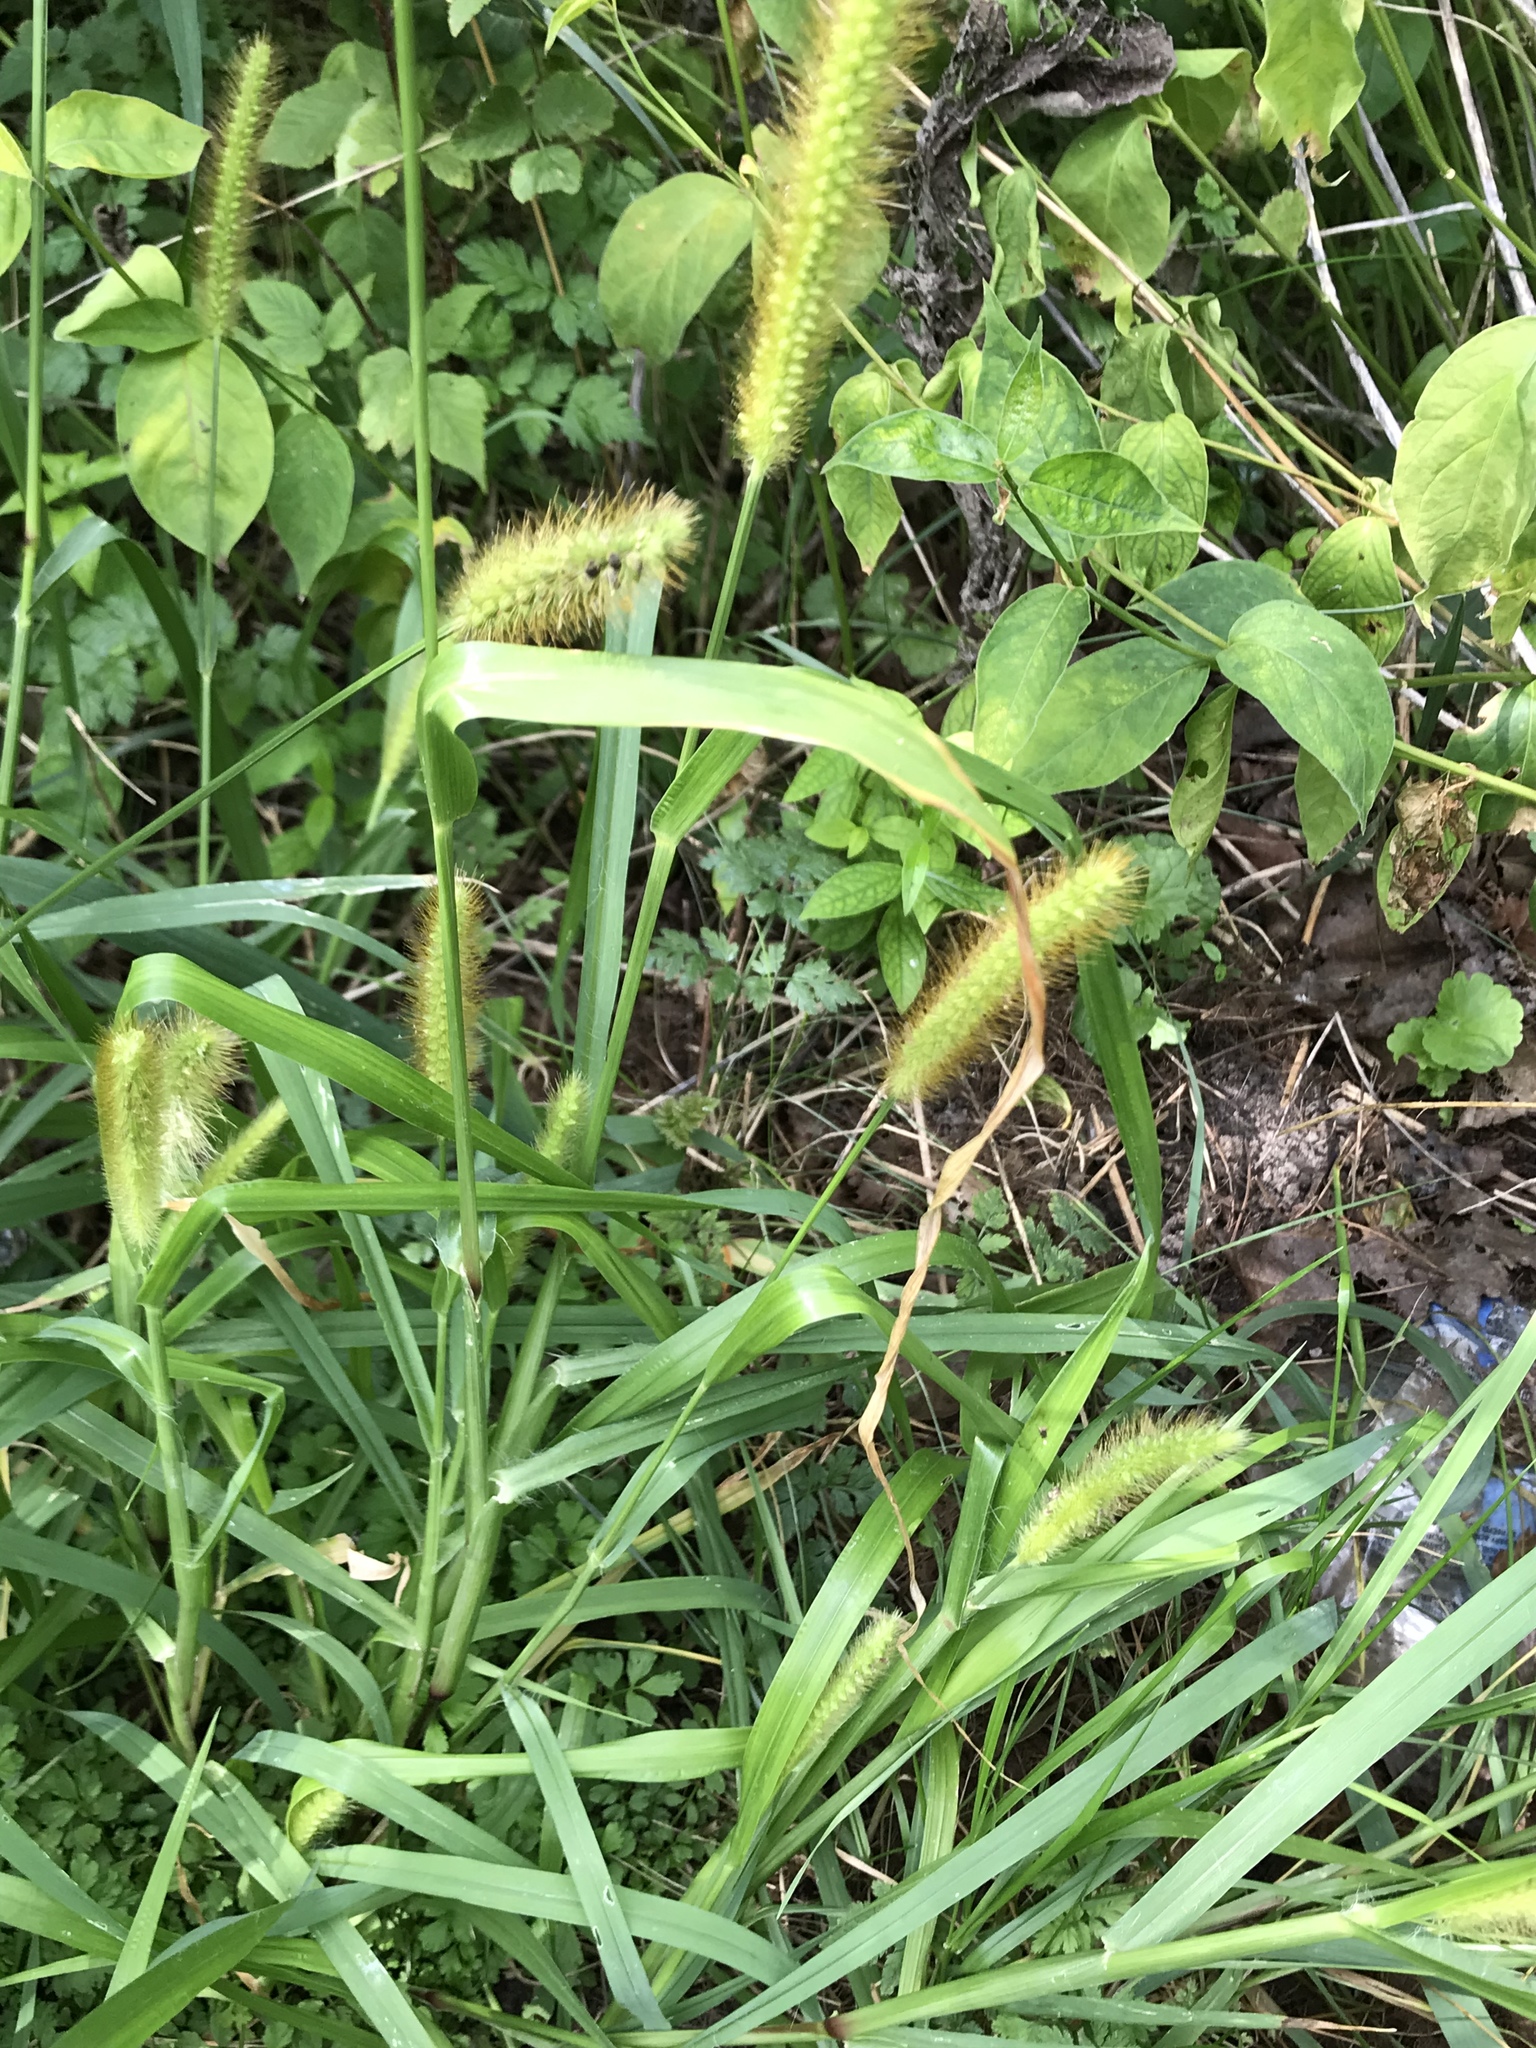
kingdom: Plantae
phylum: Tracheophyta
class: Liliopsida
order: Poales
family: Poaceae
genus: Setaria
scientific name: Setaria pumila
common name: Yellow bristle-grass
